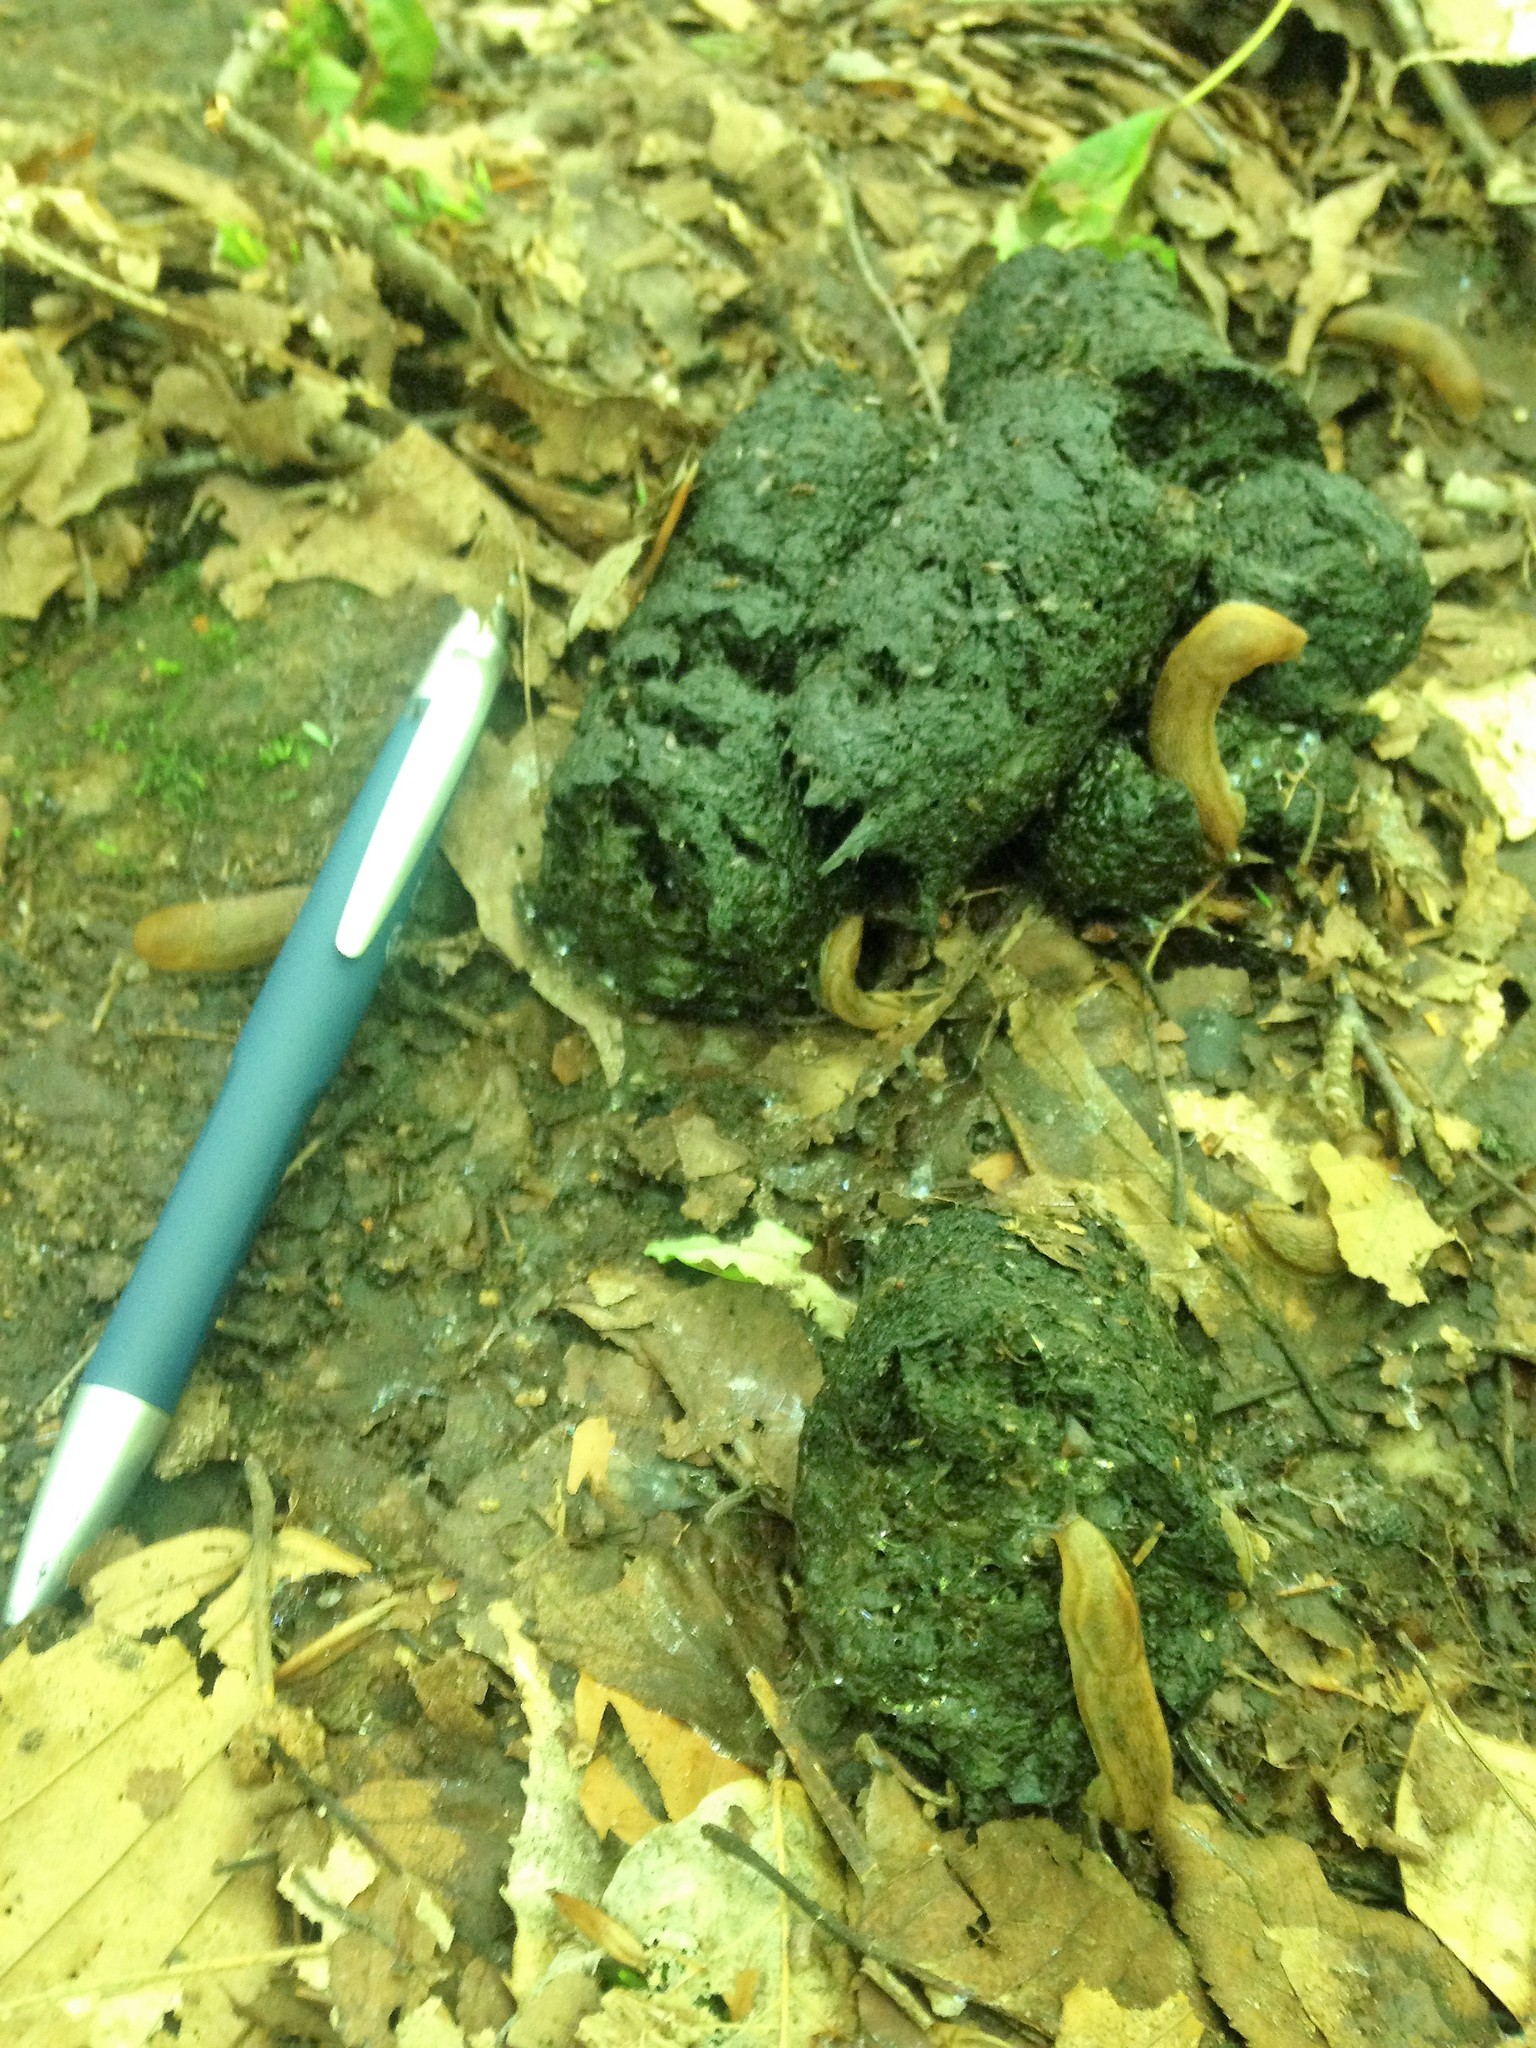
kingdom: Animalia
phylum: Chordata
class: Mammalia
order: Carnivora
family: Ursidae
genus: Ursus
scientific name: Ursus americanus
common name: American black bear
